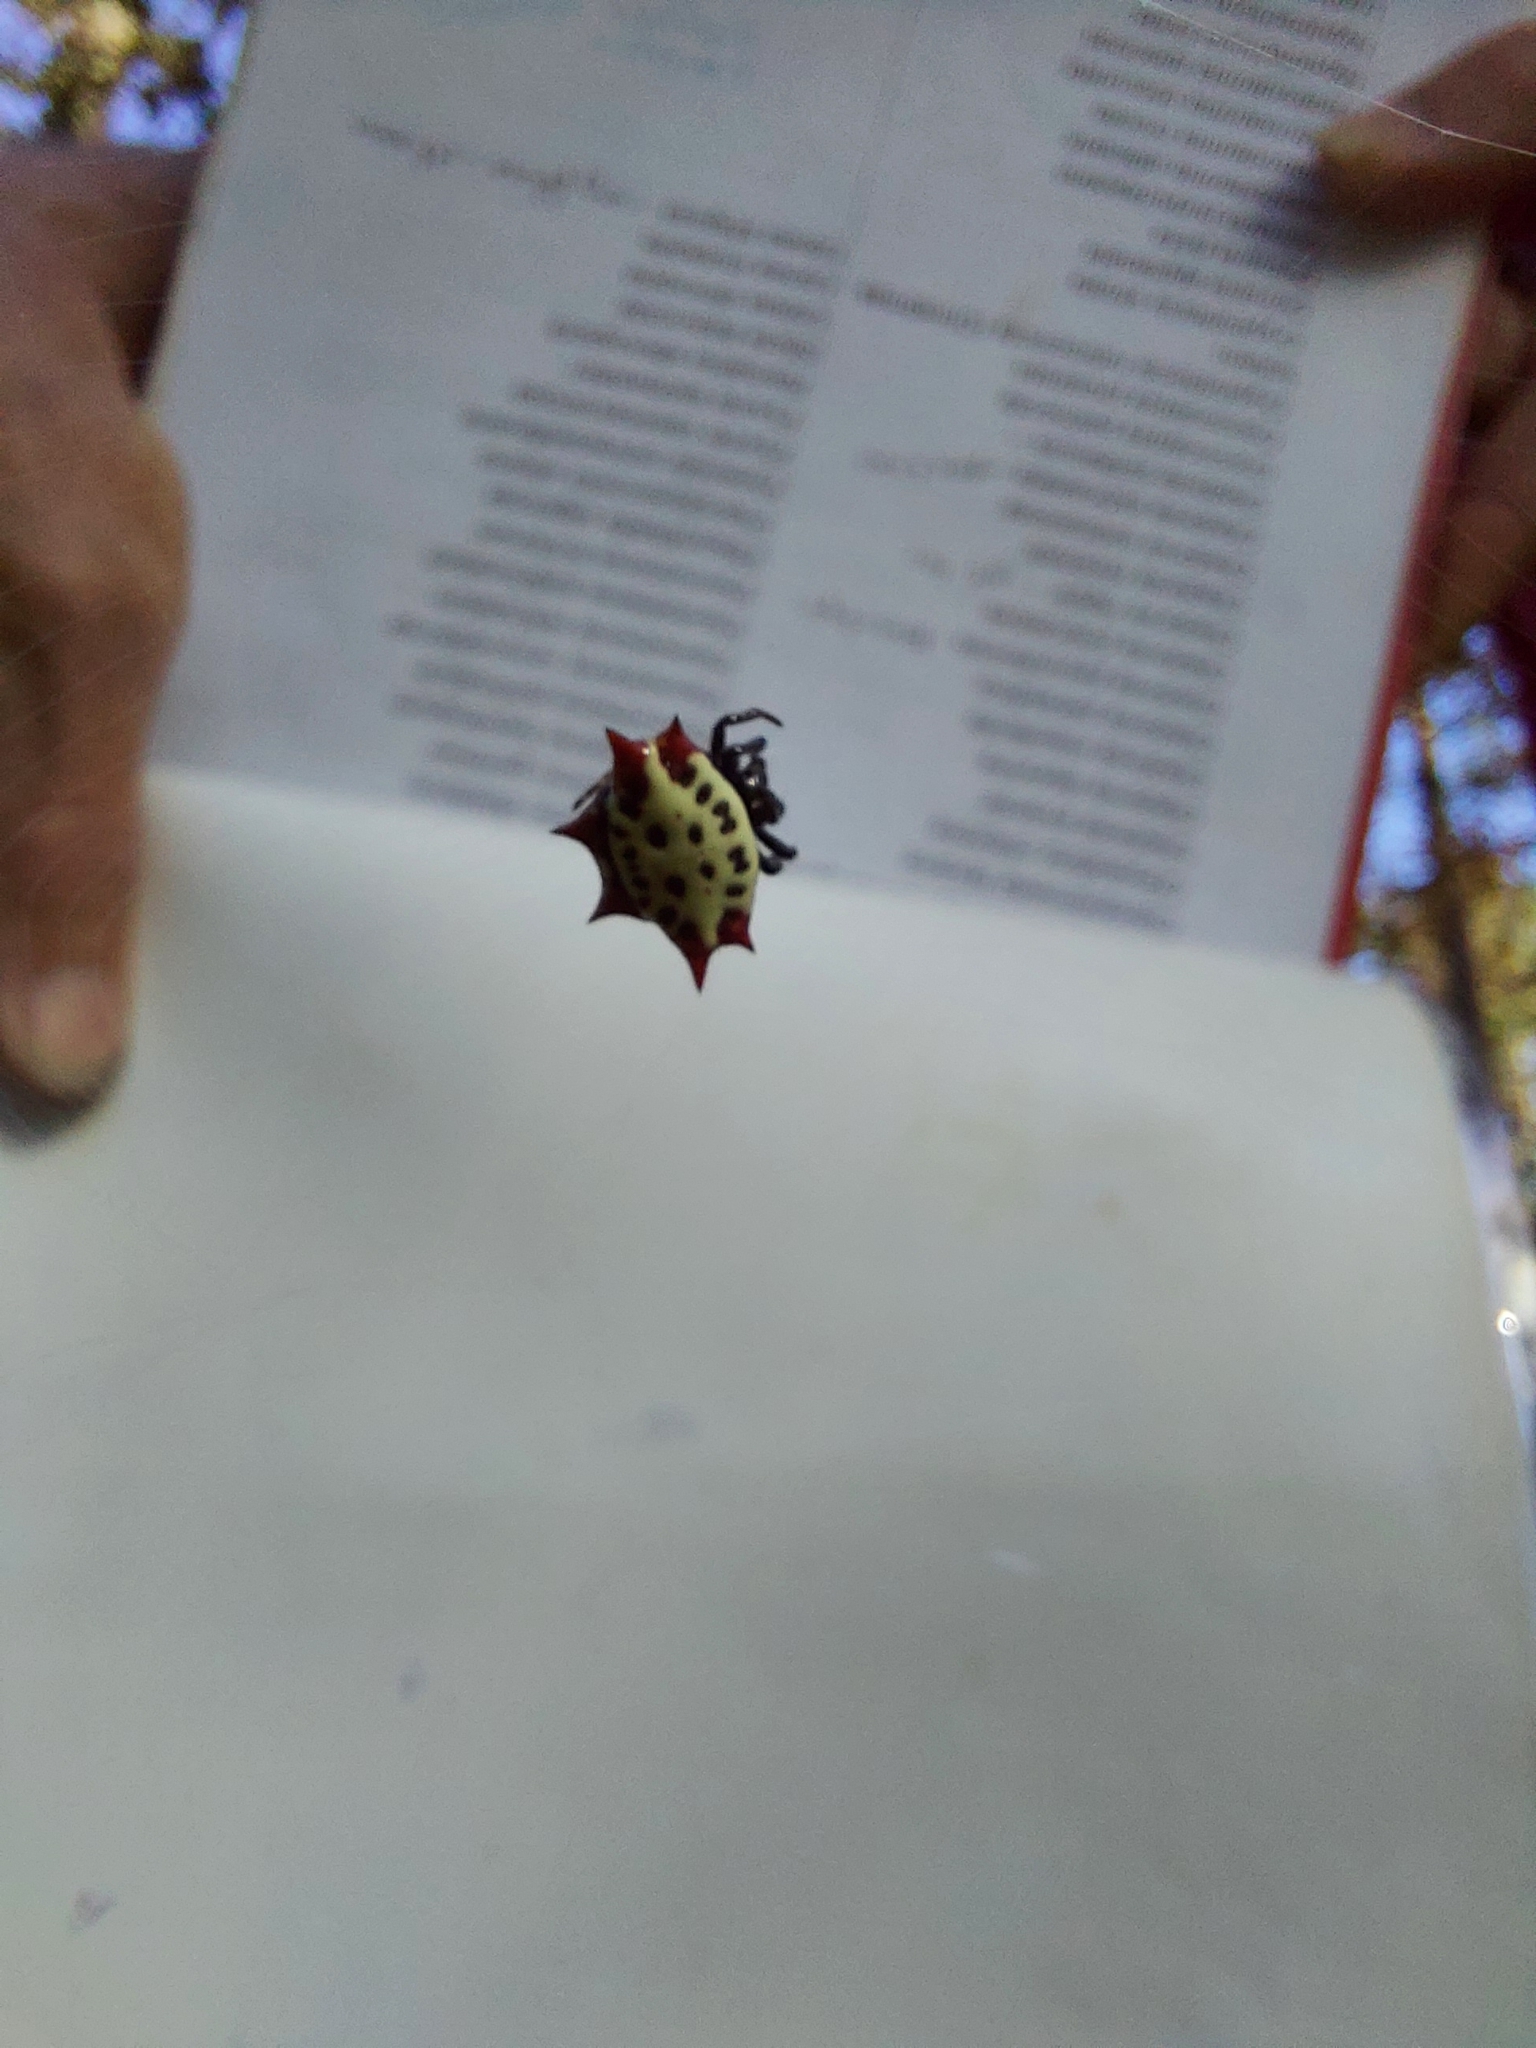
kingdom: Animalia
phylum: Arthropoda
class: Arachnida
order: Araneae
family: Araneidae
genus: Gasteracantha
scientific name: Gasteracantha cancriformis
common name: Orb weavers
